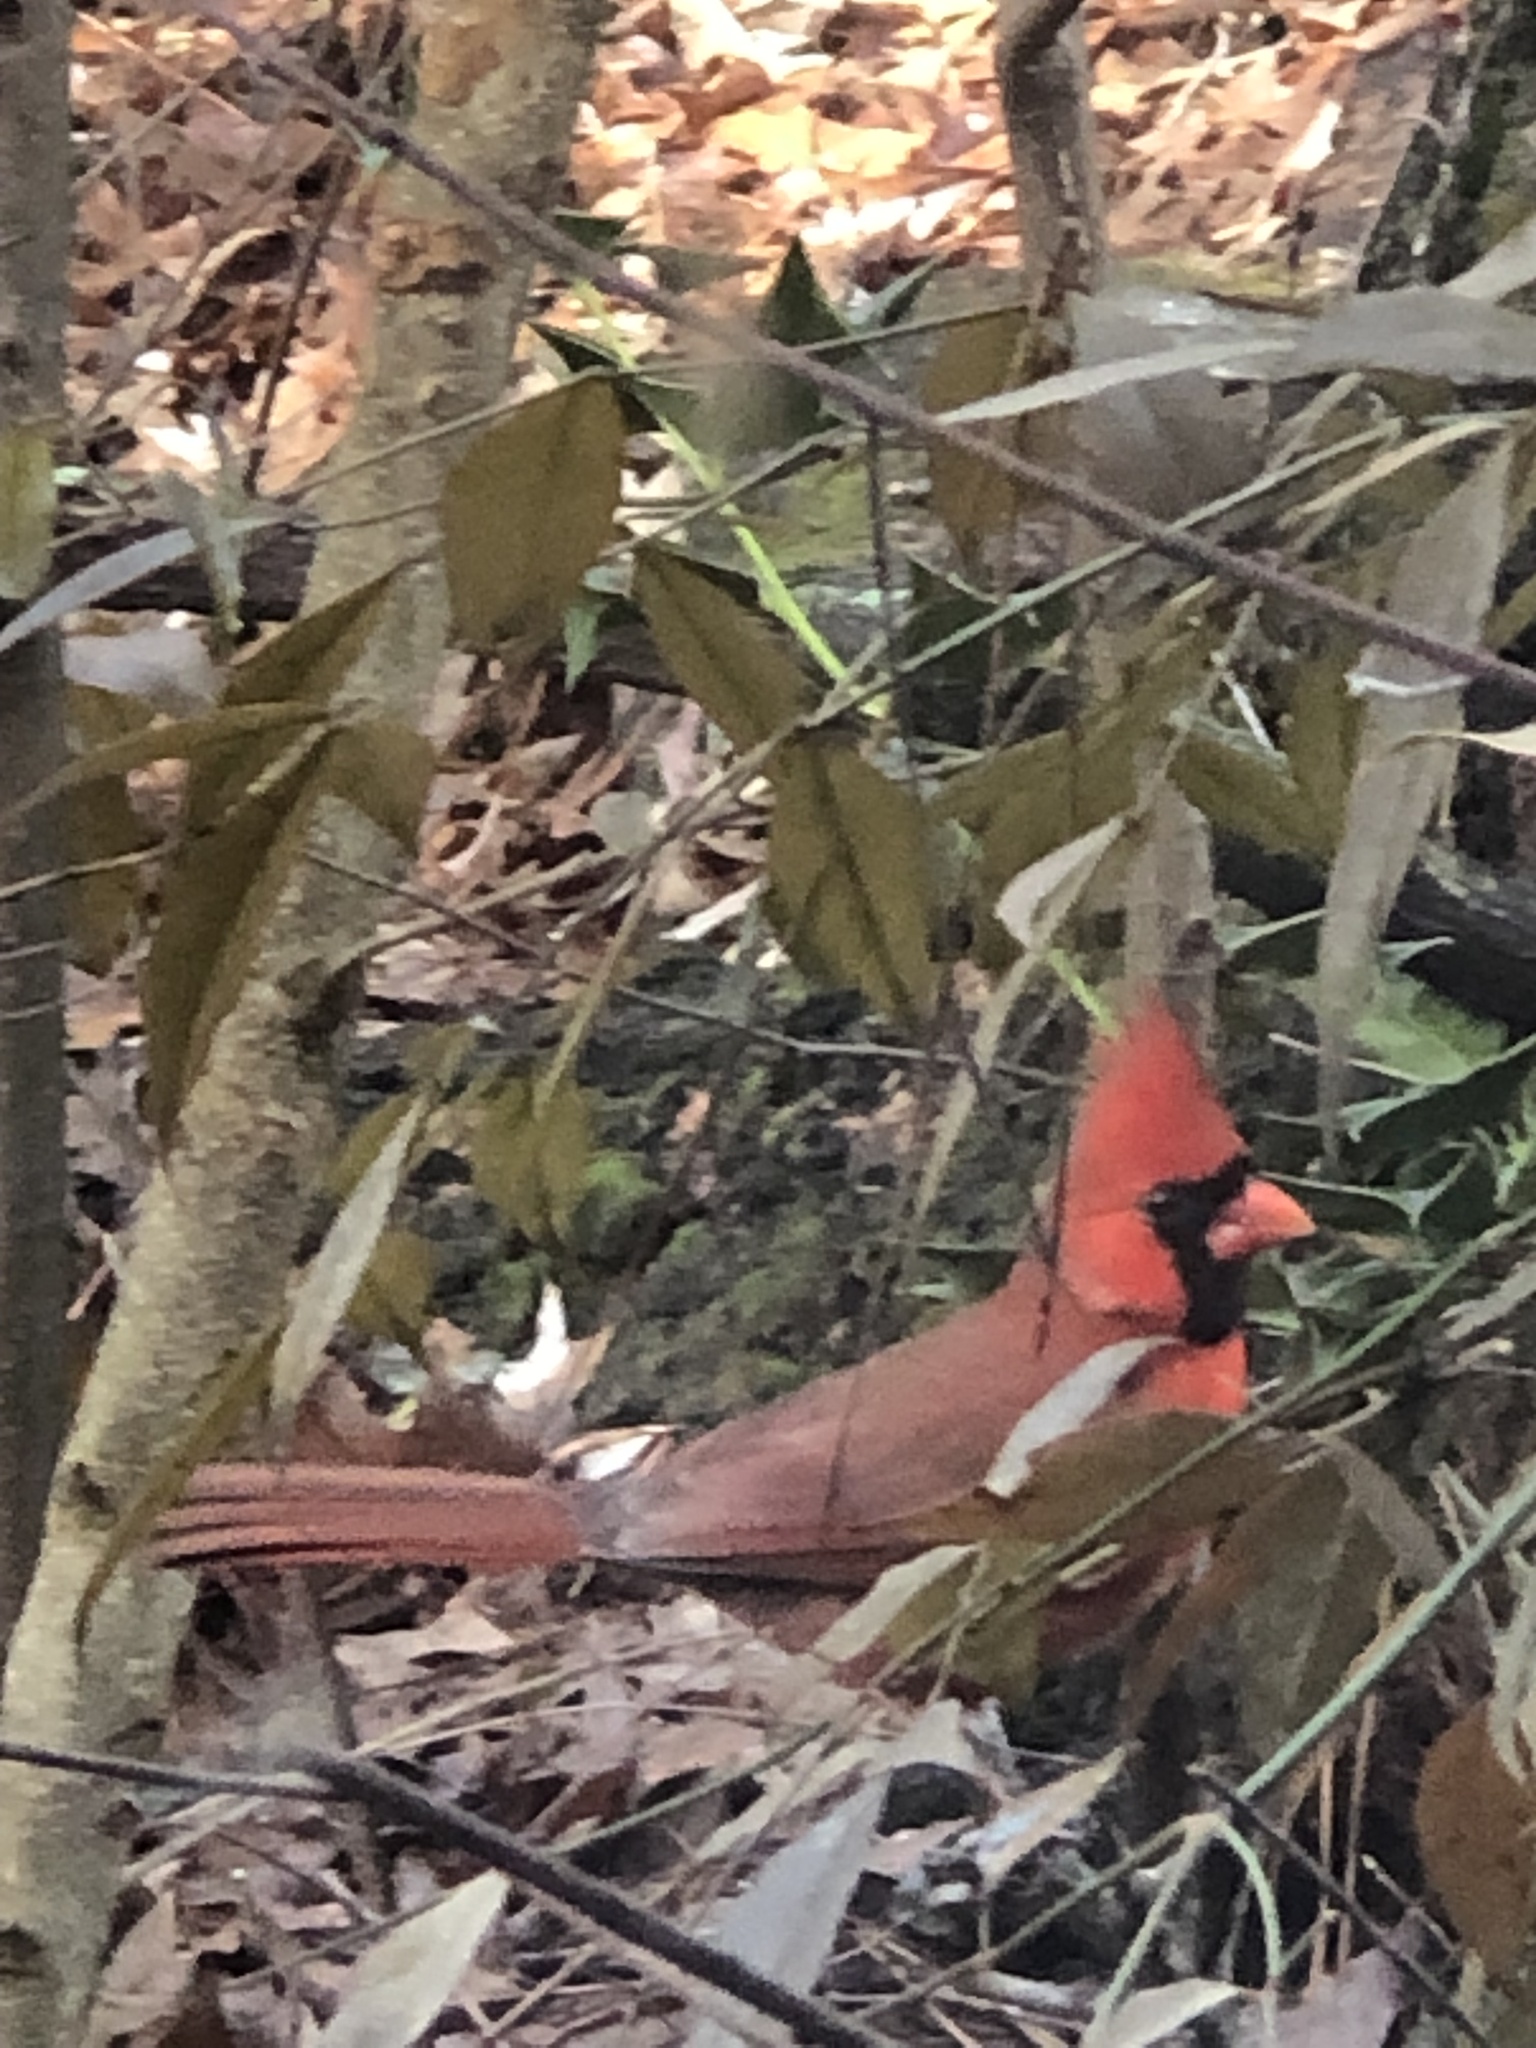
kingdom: Animalia
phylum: Chordata
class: Aves
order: Passeriformes
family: Cardinalidae
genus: Cardinalis
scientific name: Cardinalis cardinalis
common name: Northern cardinal
